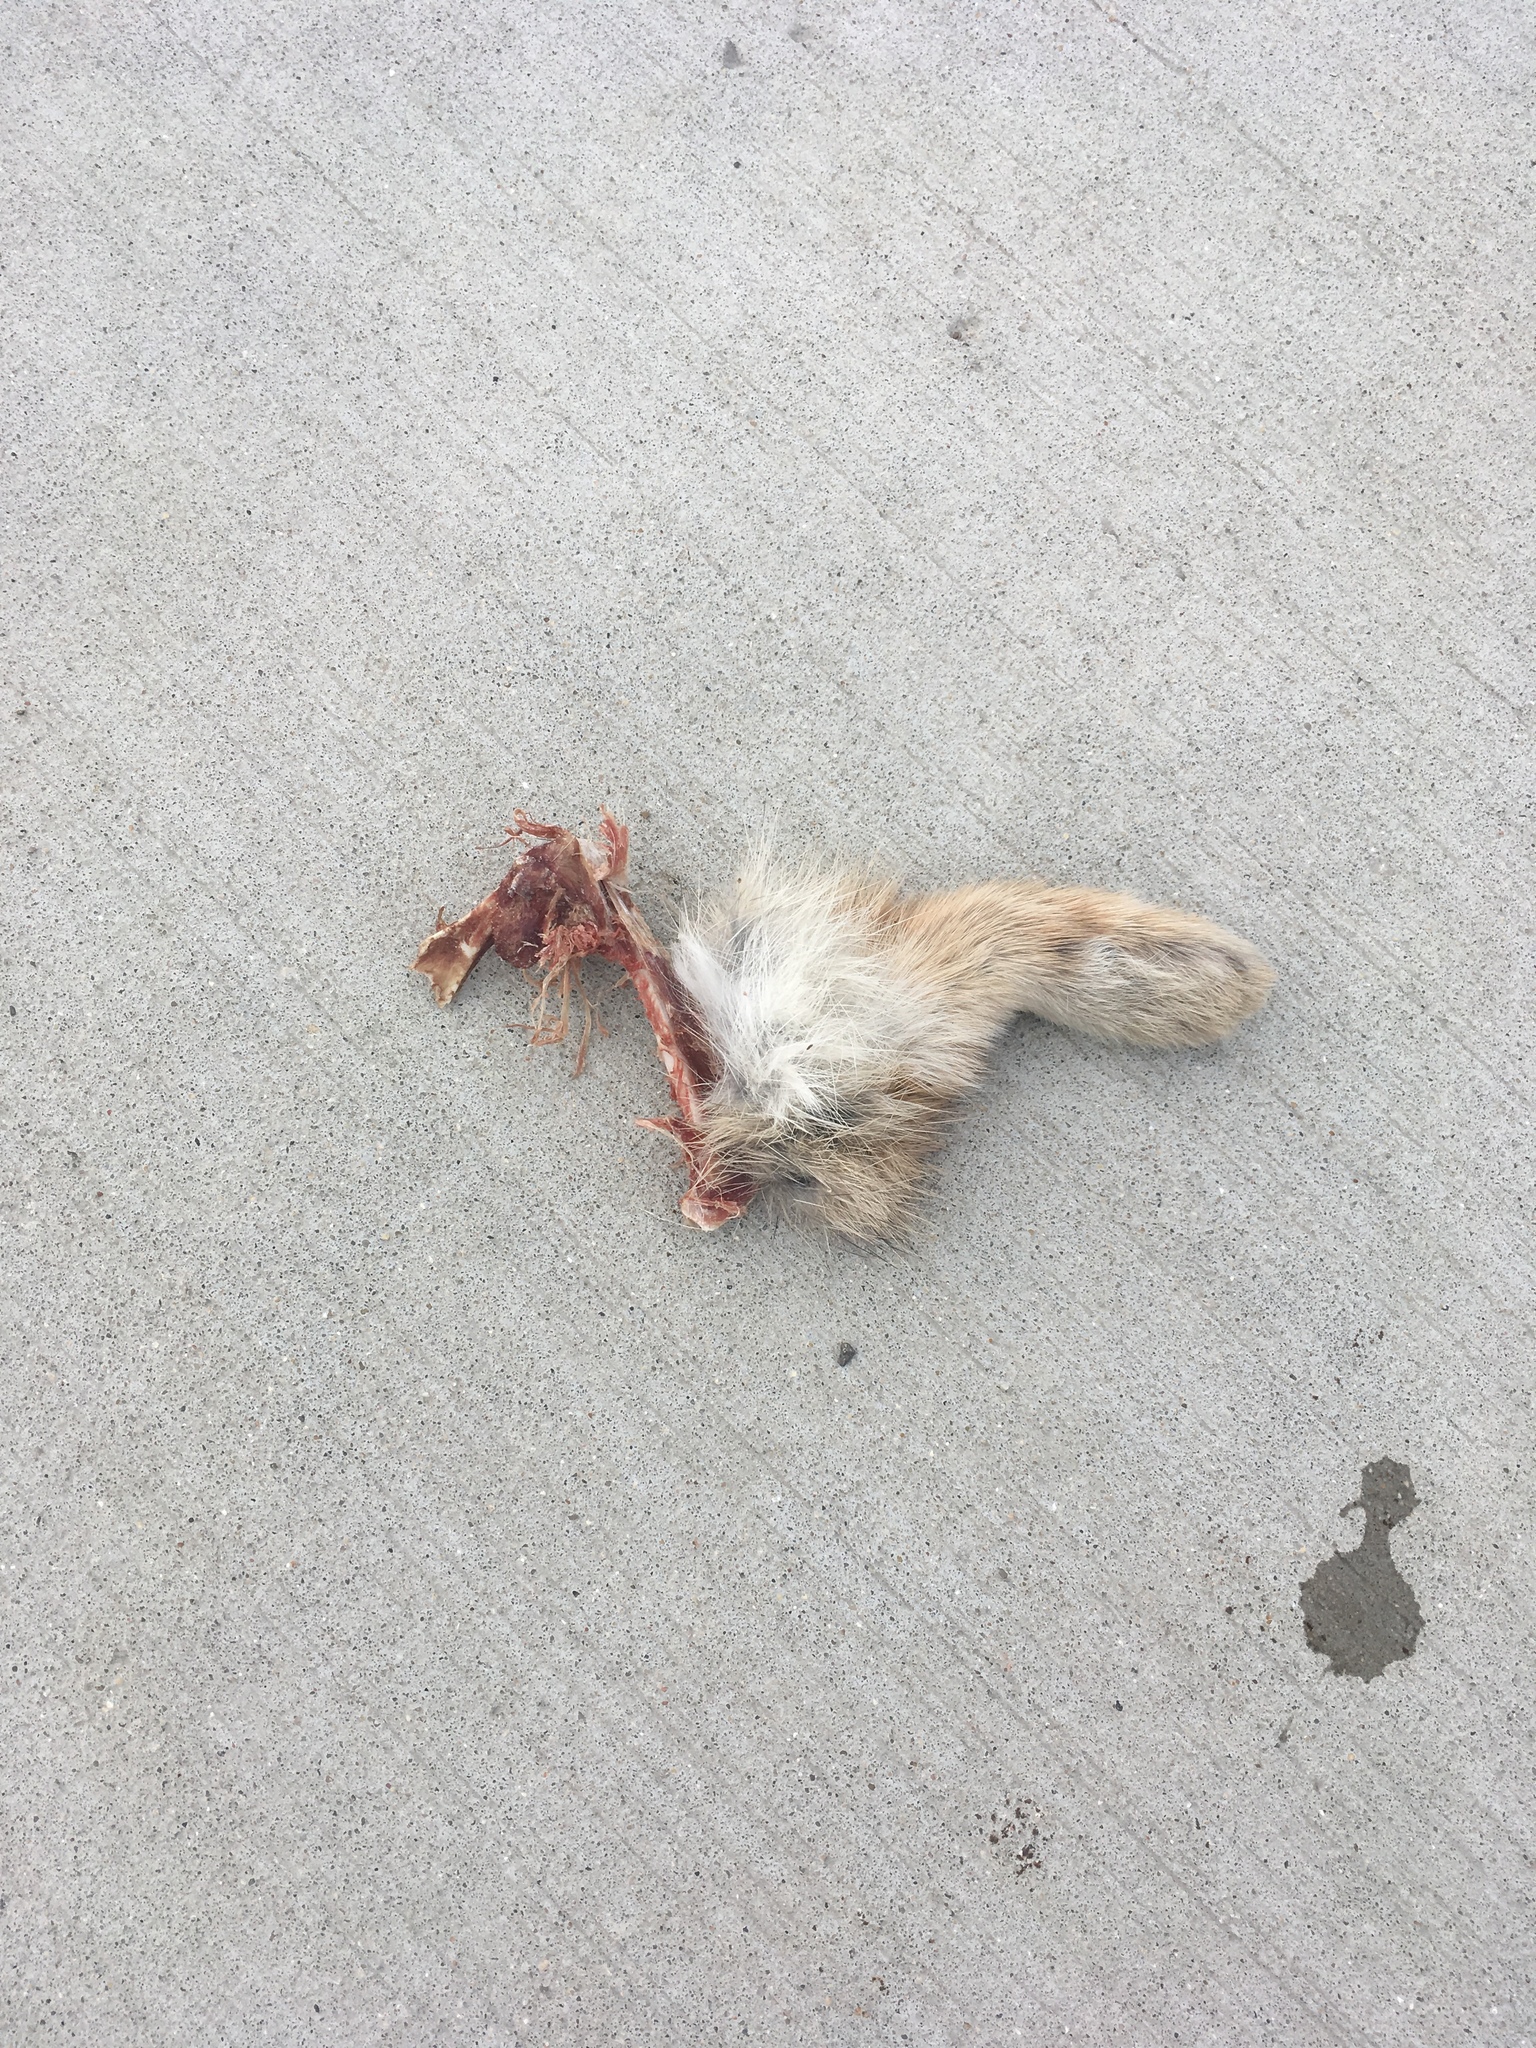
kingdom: Animalia
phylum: Chordata
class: Mammalia
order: Lagomorpha
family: Leporidae
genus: Sylvilagus
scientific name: Sylvilagus floridanus
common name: Eastern cottontail
